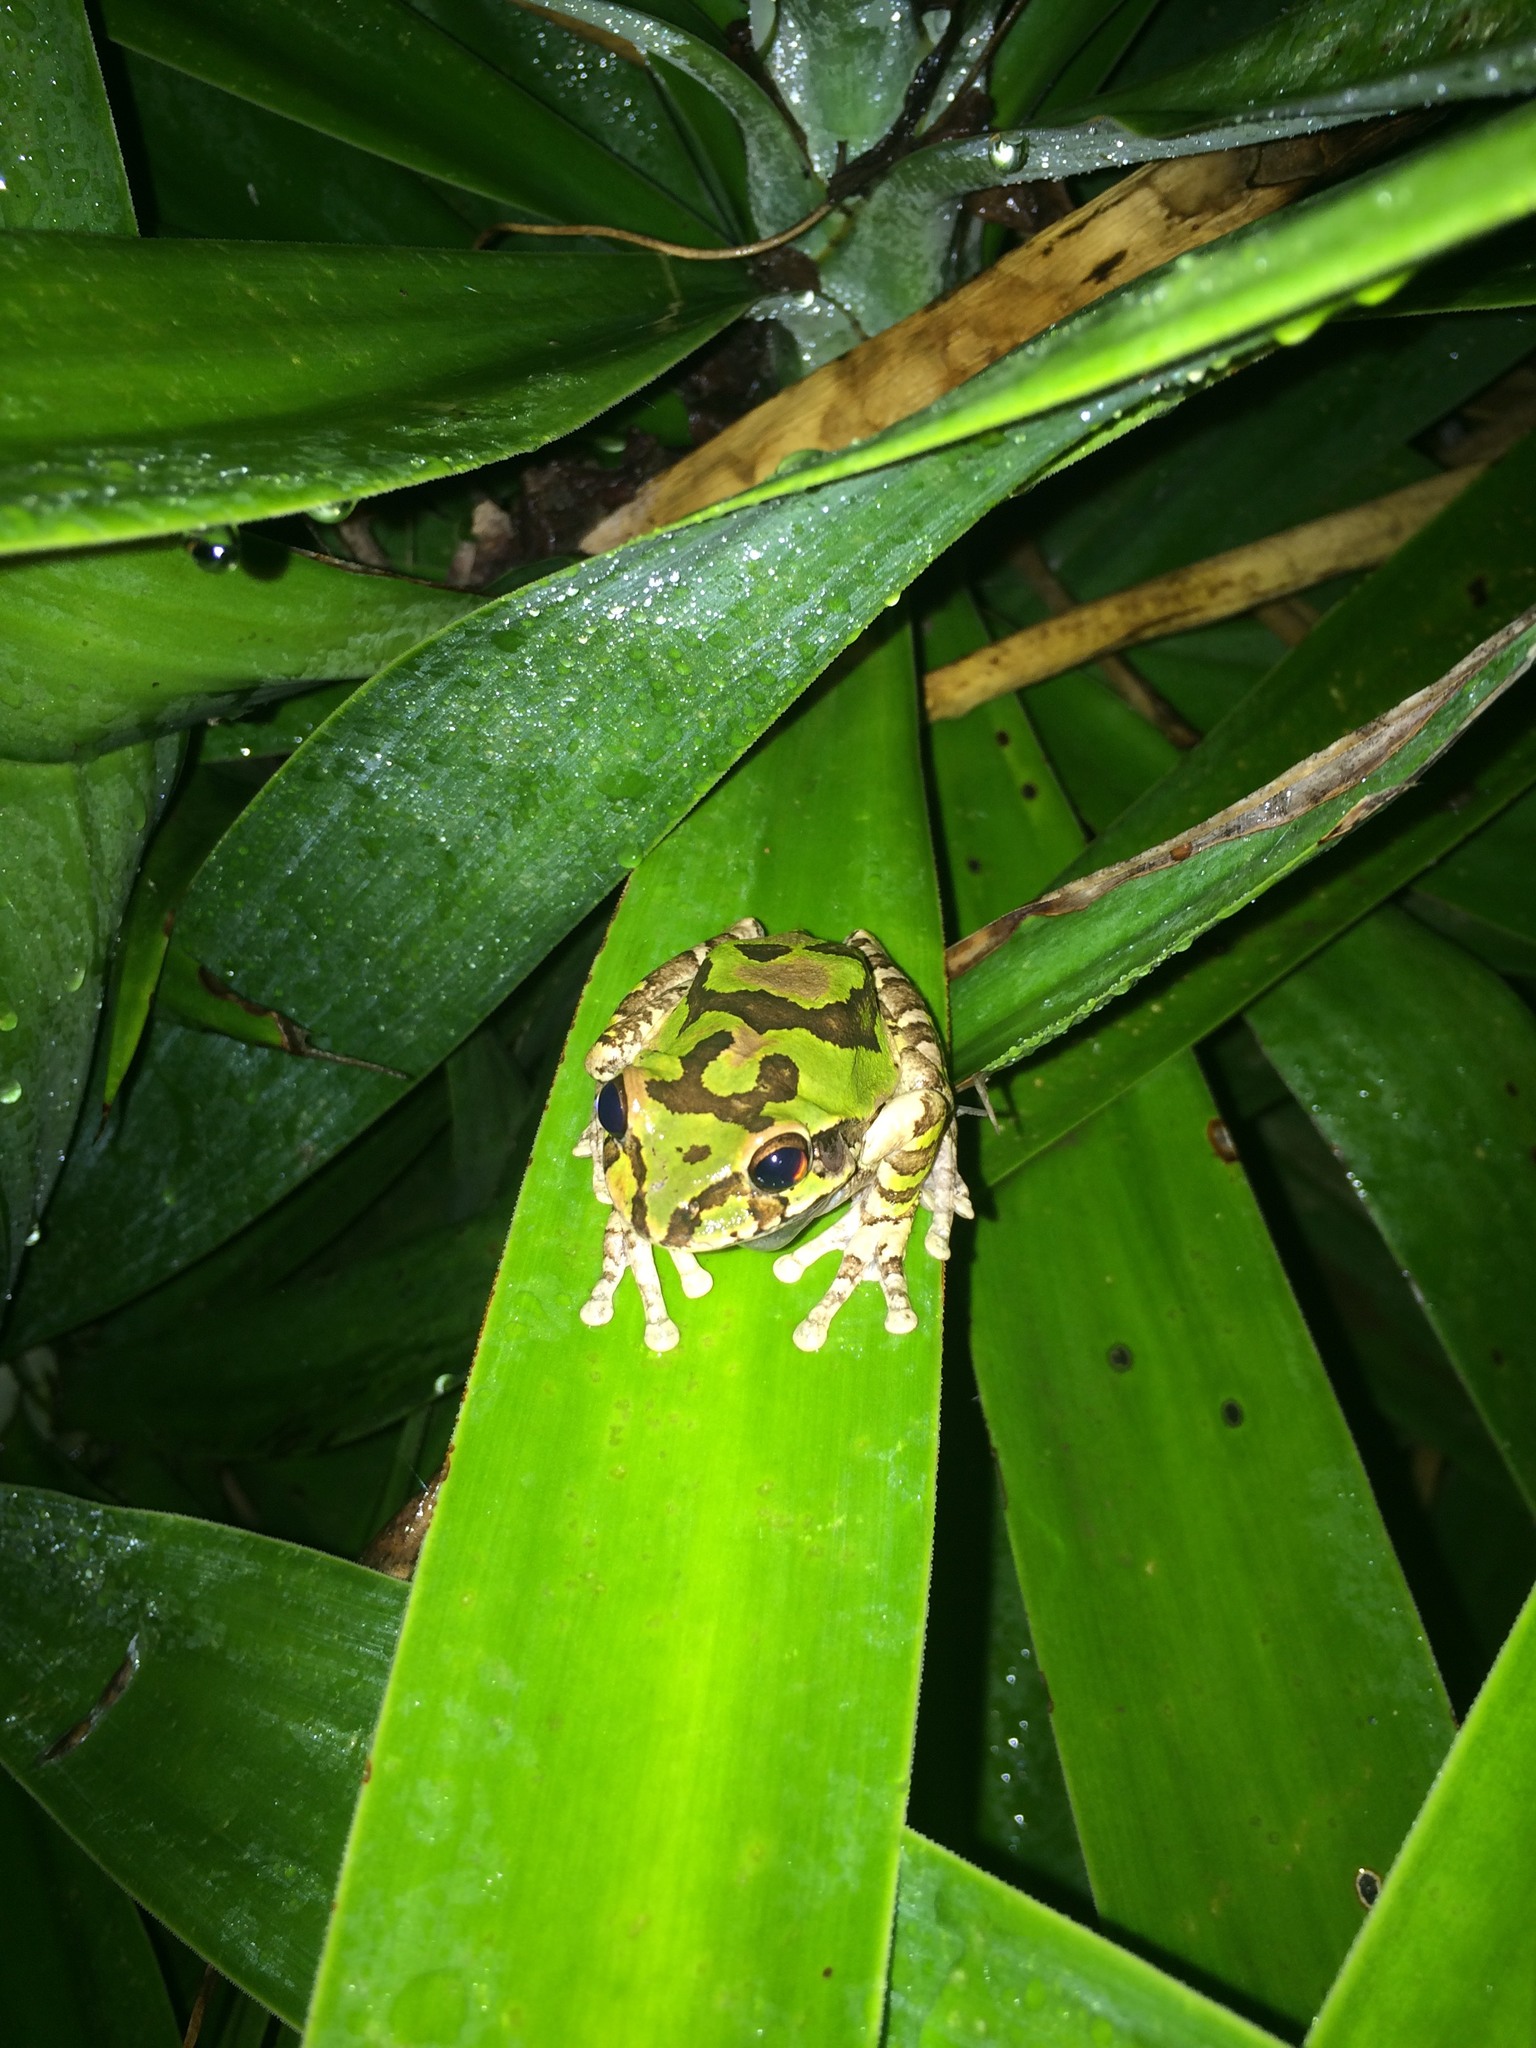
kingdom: Animalia
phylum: Chordata
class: Amphibia
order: Anura
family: Hylidae
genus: Smilisca
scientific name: Smilisca baudinii
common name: Mexican smilisca
